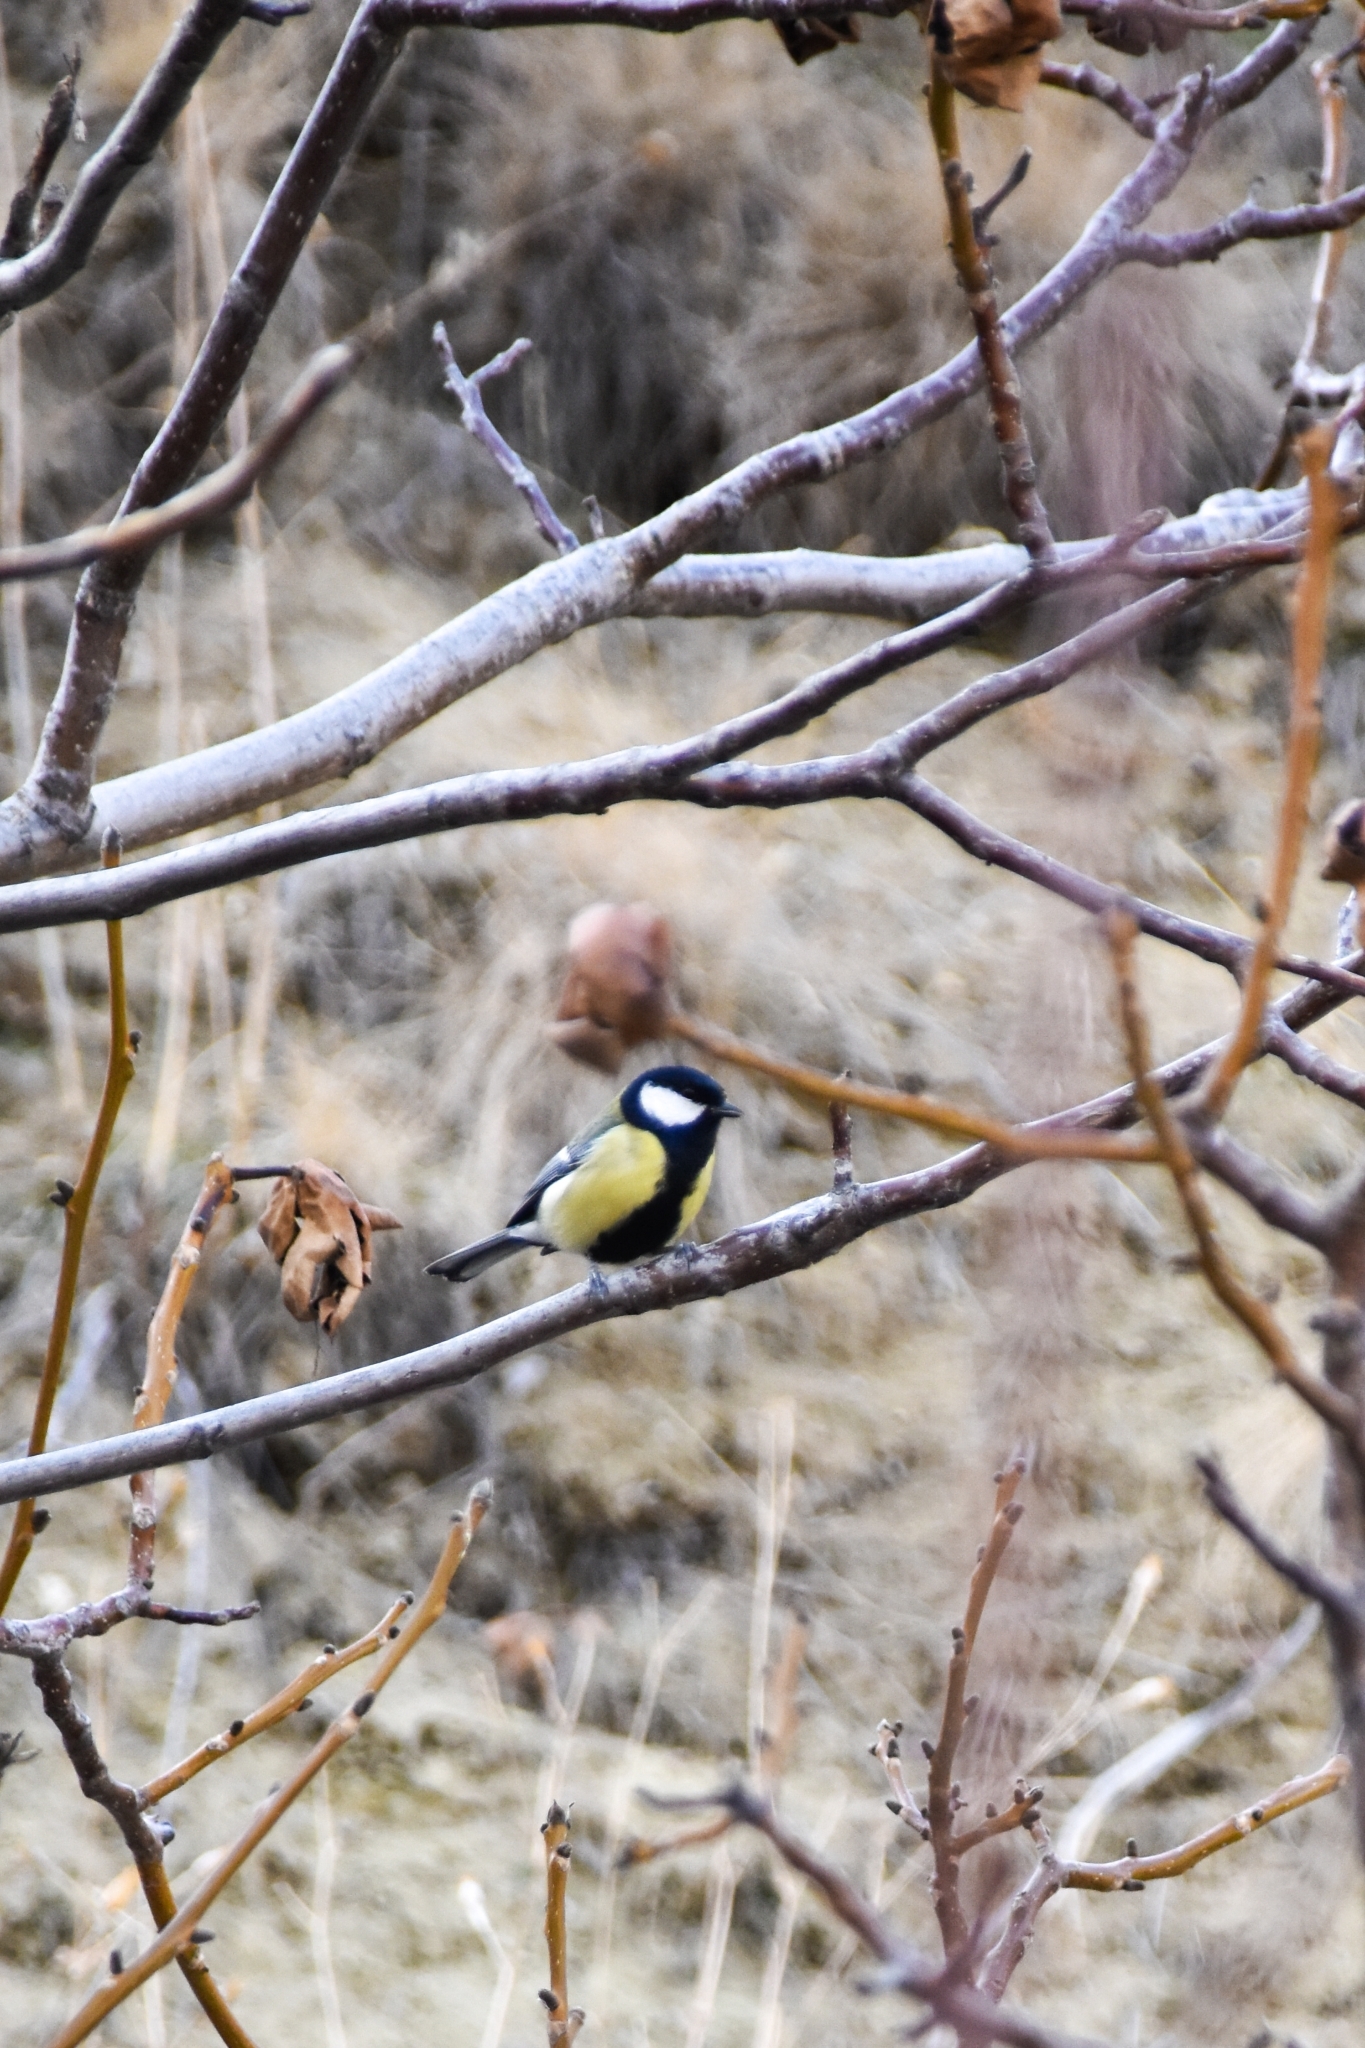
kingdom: Animalia
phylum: Chordata
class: Aves
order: Passeriformes
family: Paridae
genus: Parus
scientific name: Parus major
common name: Great tit
